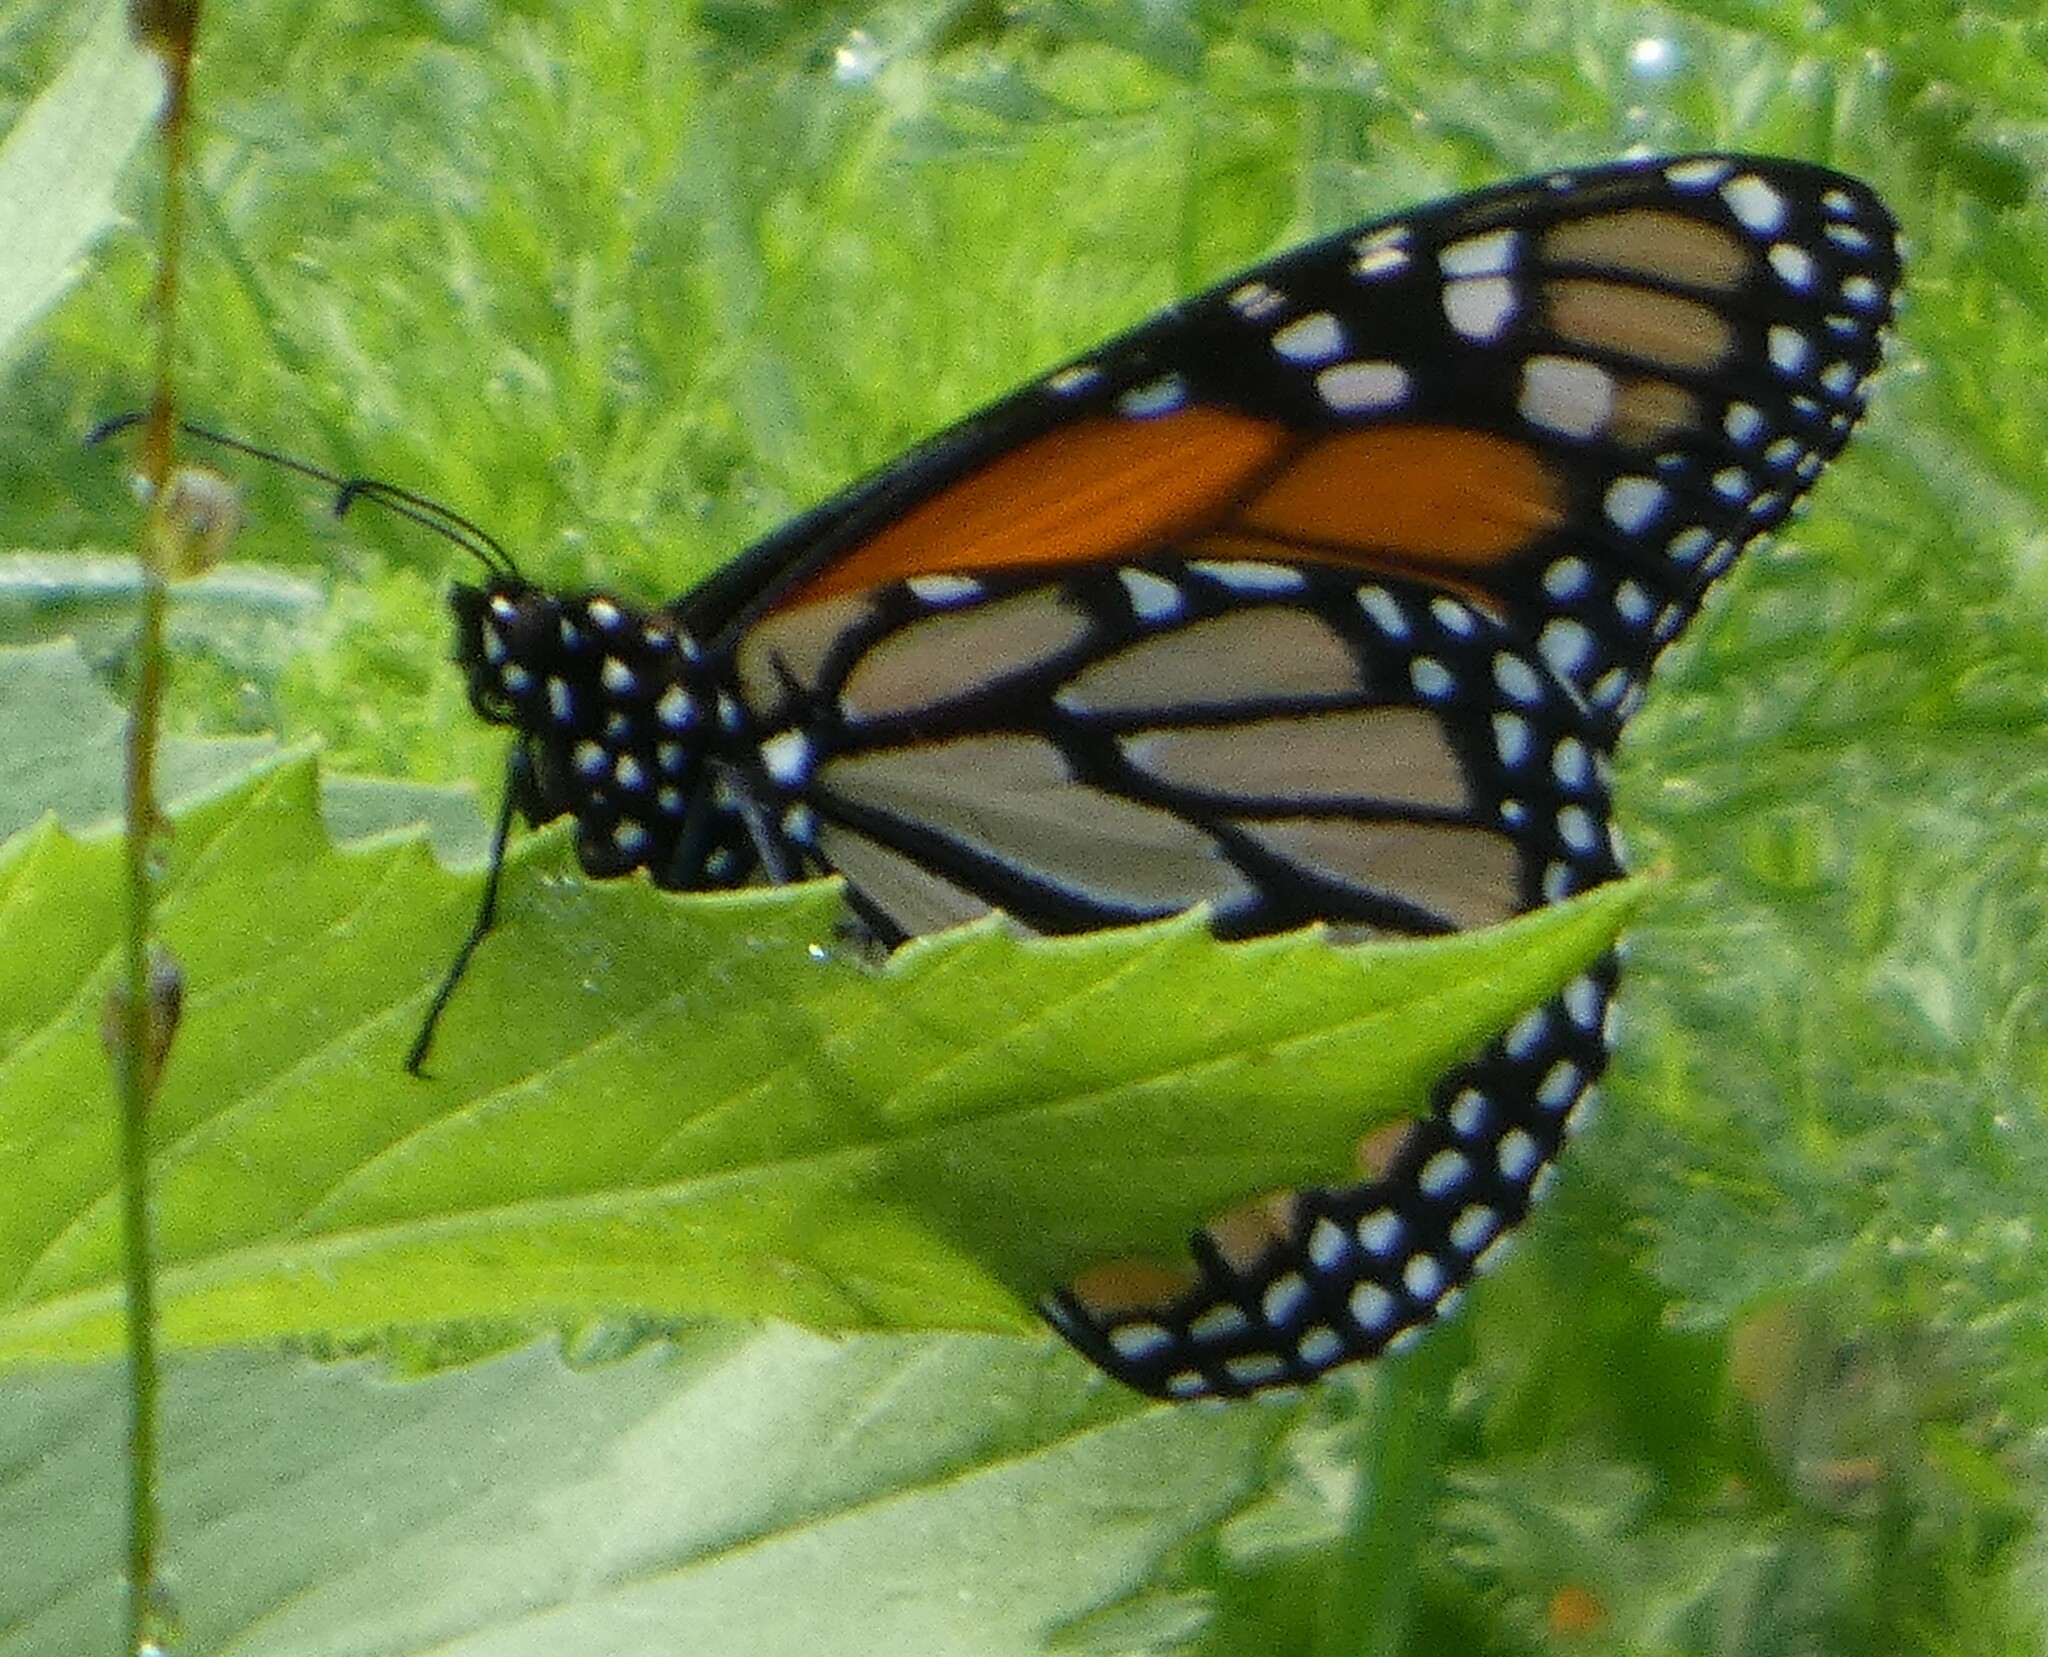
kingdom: Animalia
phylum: Arthropoda
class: Insecta
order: Lepidoptera
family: Nymphalidae
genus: Danaus
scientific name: Danaus plexippus
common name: Monarch
